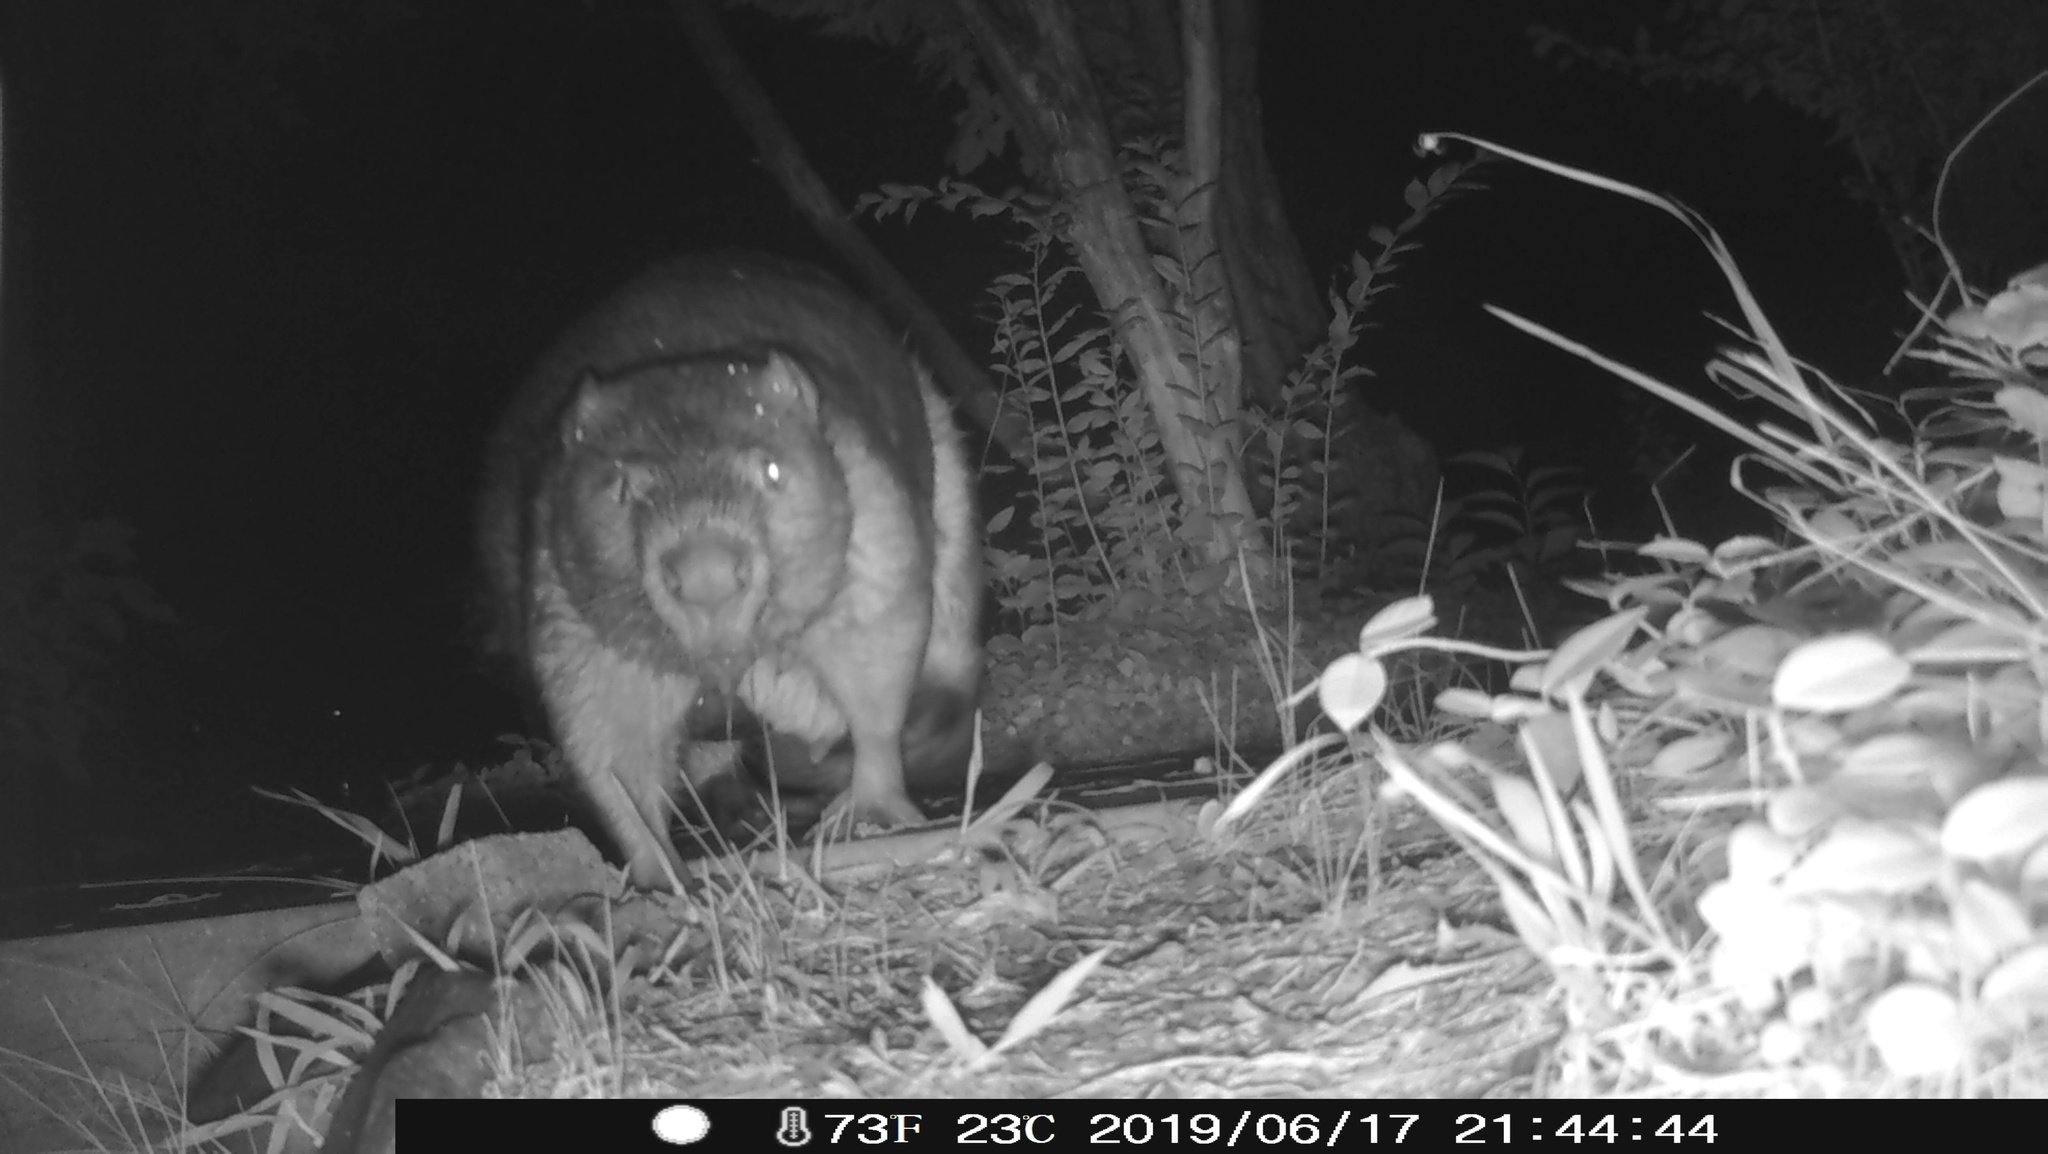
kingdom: Animalia
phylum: Chordata
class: Mammalia
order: Rodentia
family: Castoridae
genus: Castor
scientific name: Castor canadensis
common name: American beaver
